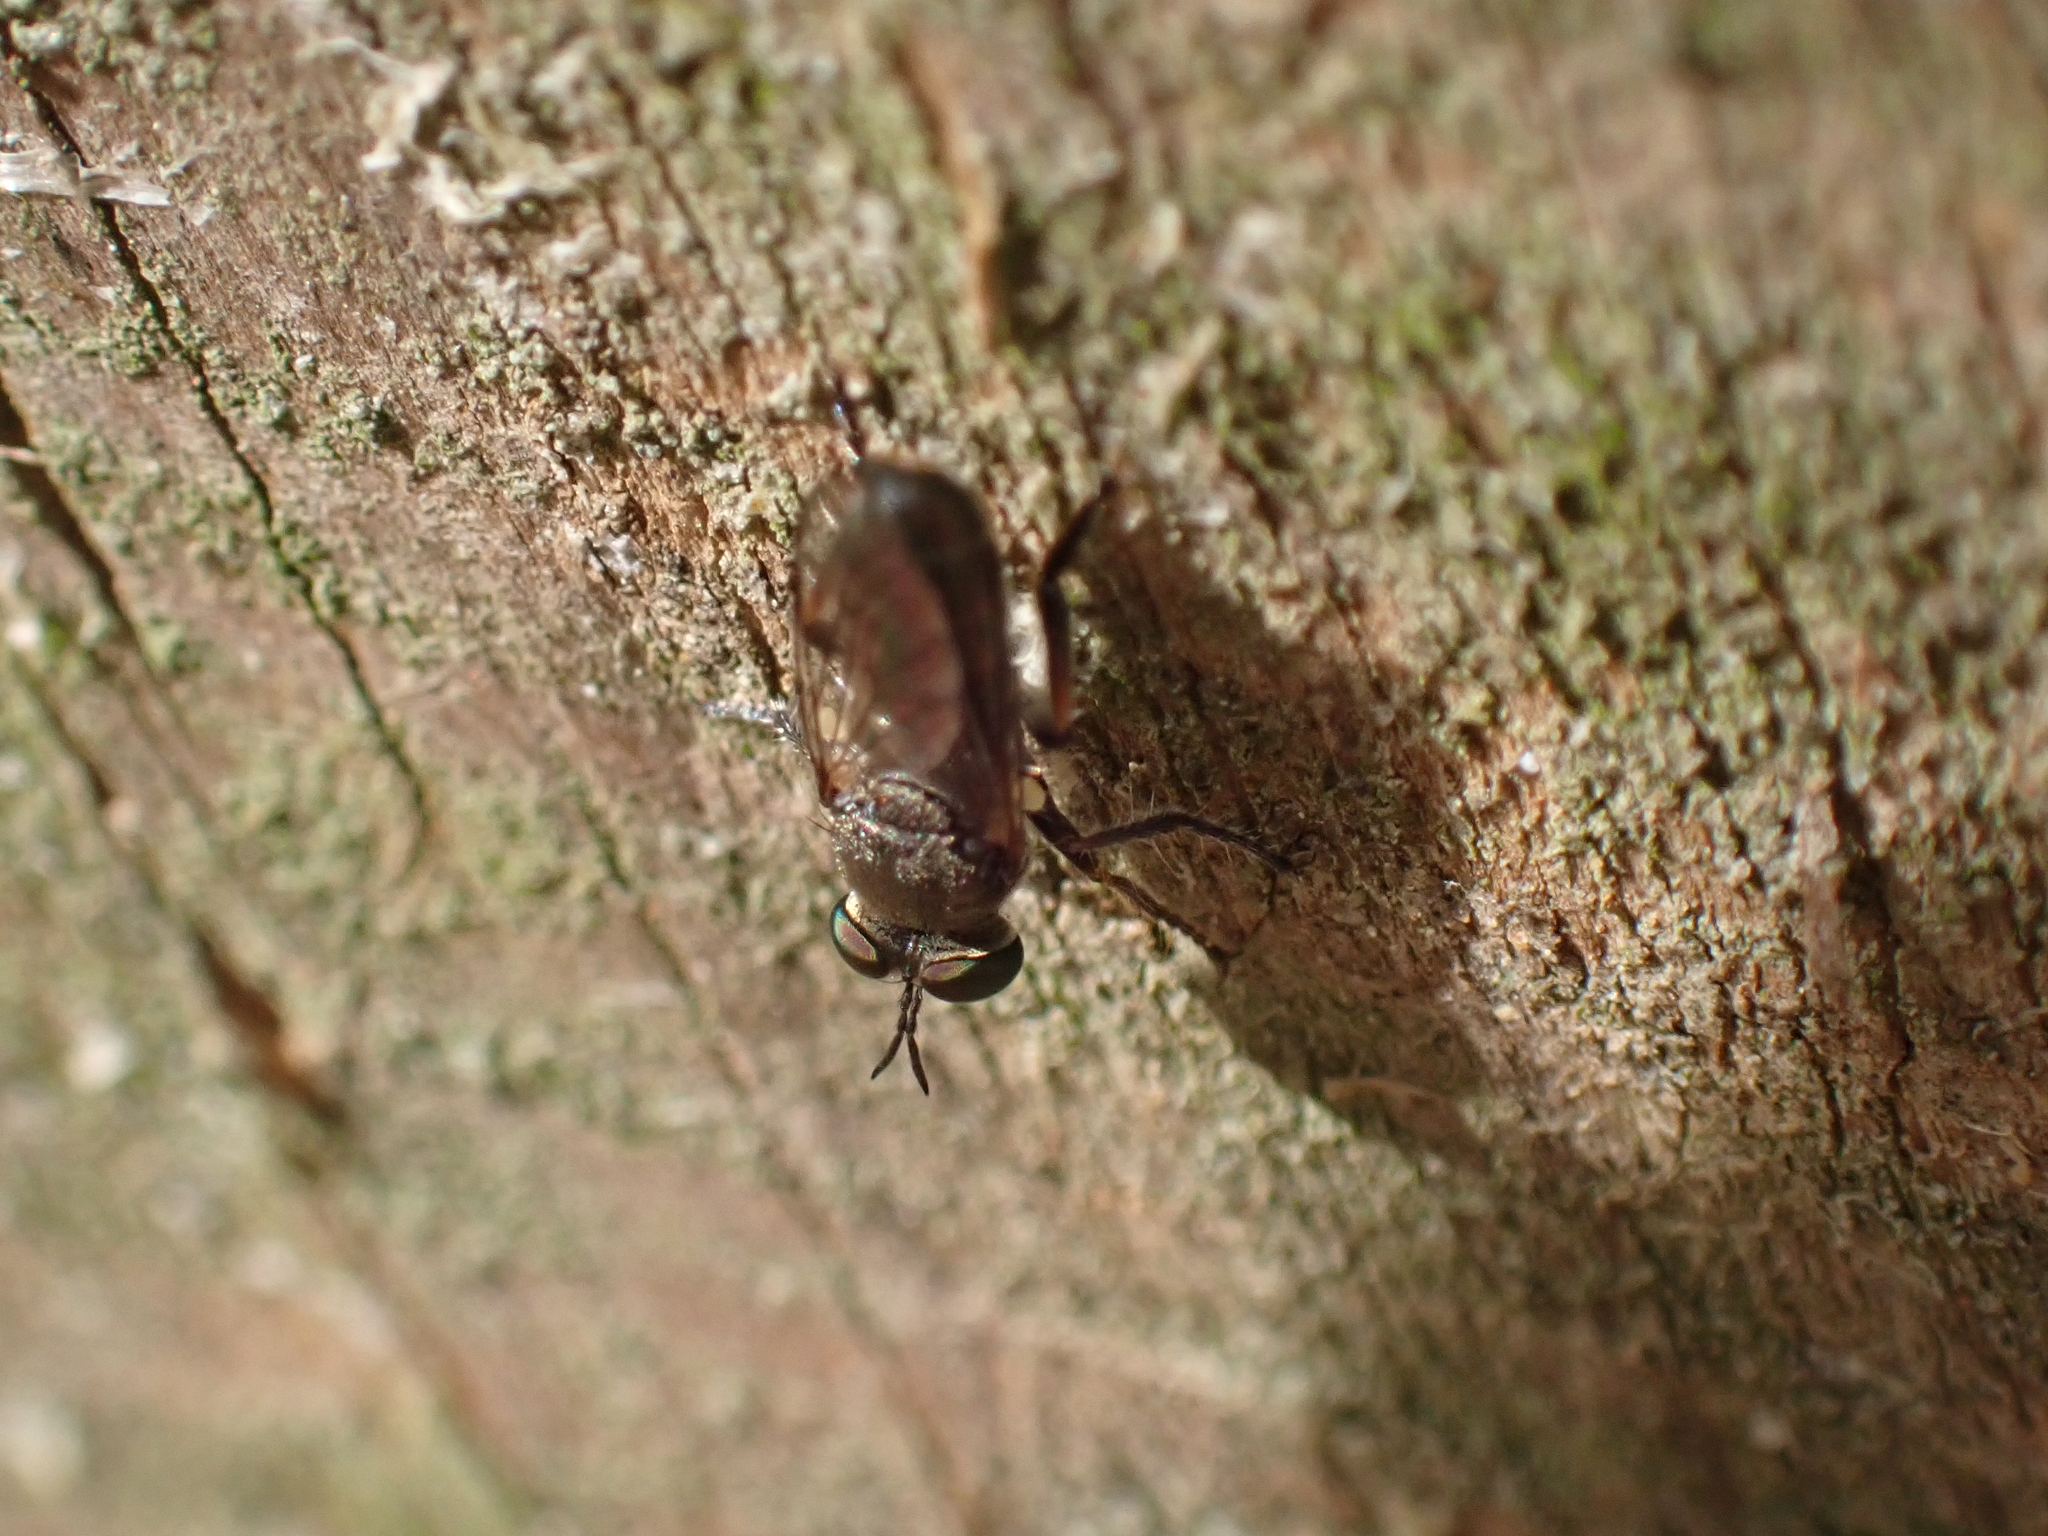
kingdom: Animalia
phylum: Arthropoda
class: Insecta
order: Diptera
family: Asilidae
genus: Atomosia
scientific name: Atomosia puella
